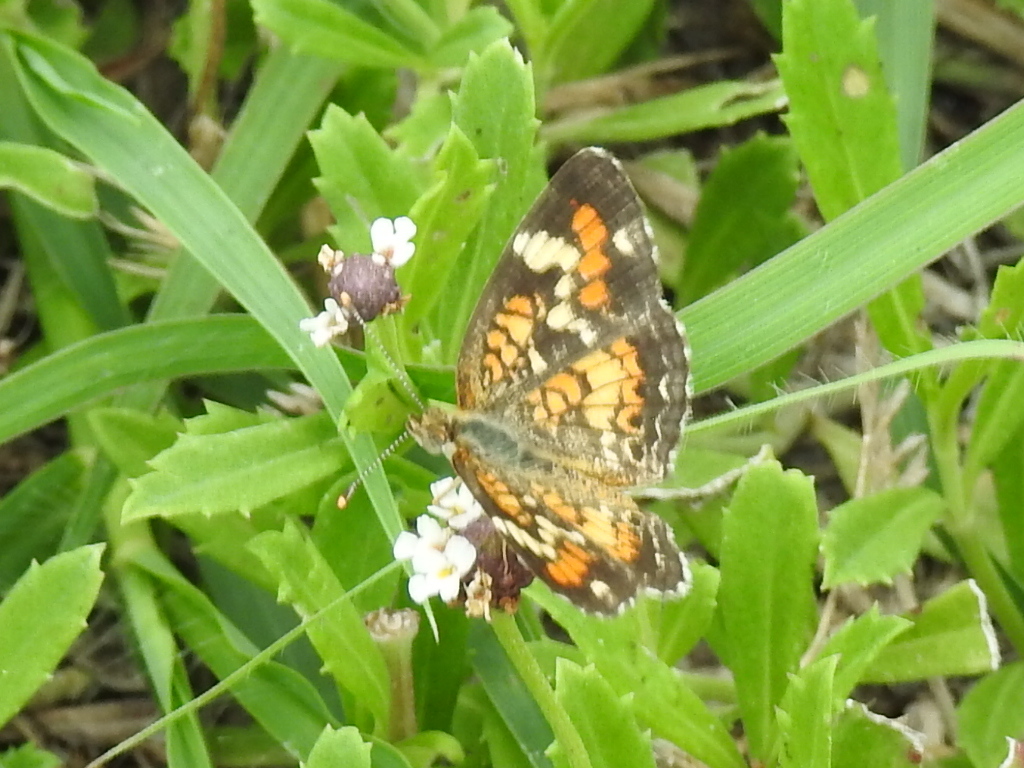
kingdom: Animalia
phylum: Arthropoda
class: Insecta
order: Lepidoptera
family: Nymphalidae
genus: Phyciodes
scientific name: Phyciodes phaon
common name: Phaon crescent
